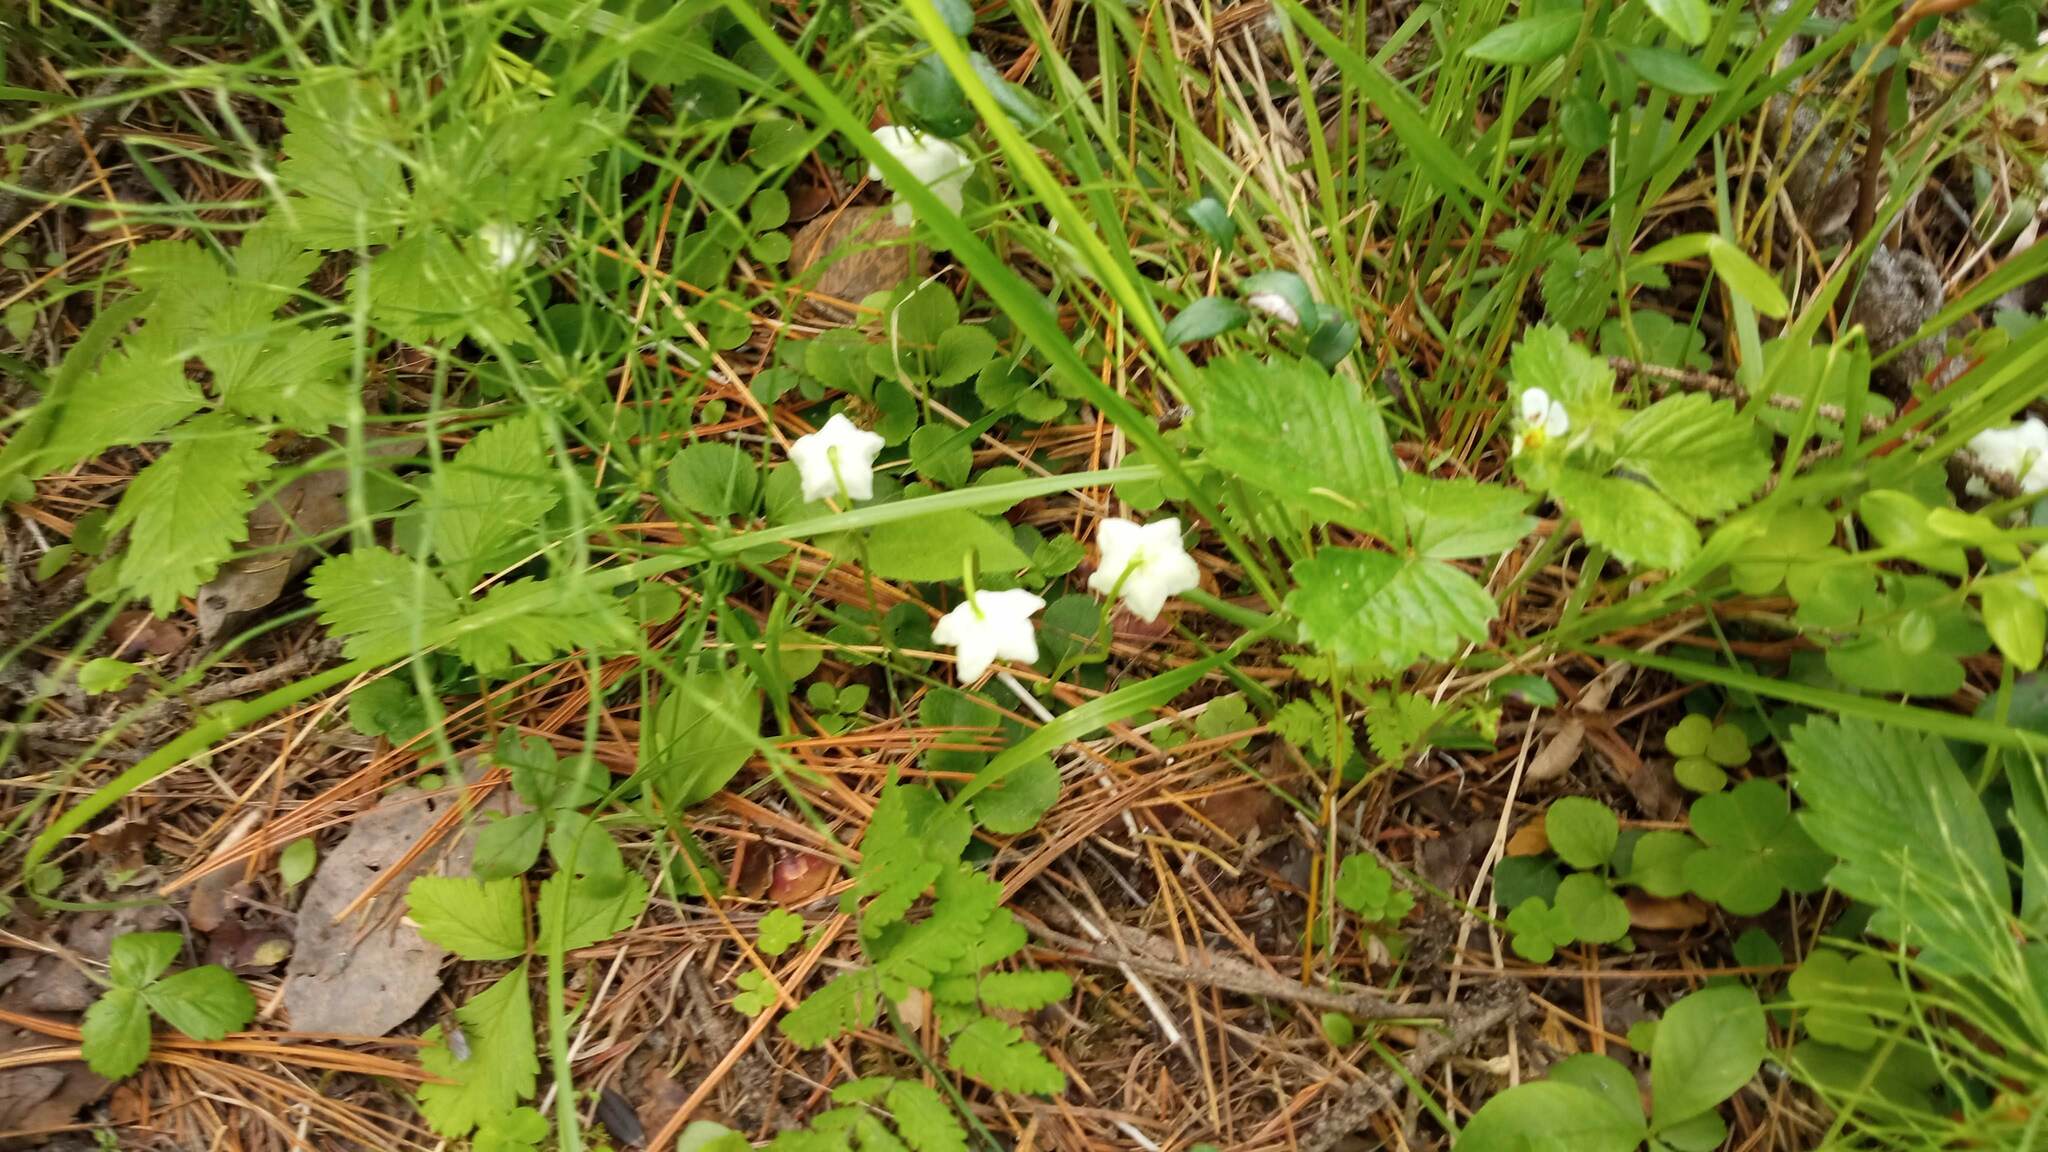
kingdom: Plantae
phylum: Tracheophyta
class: Magnoliopsida
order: Ericales
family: Ericaceae
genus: Moneses
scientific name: Moneses uniflora
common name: One-flowered wintergreen
